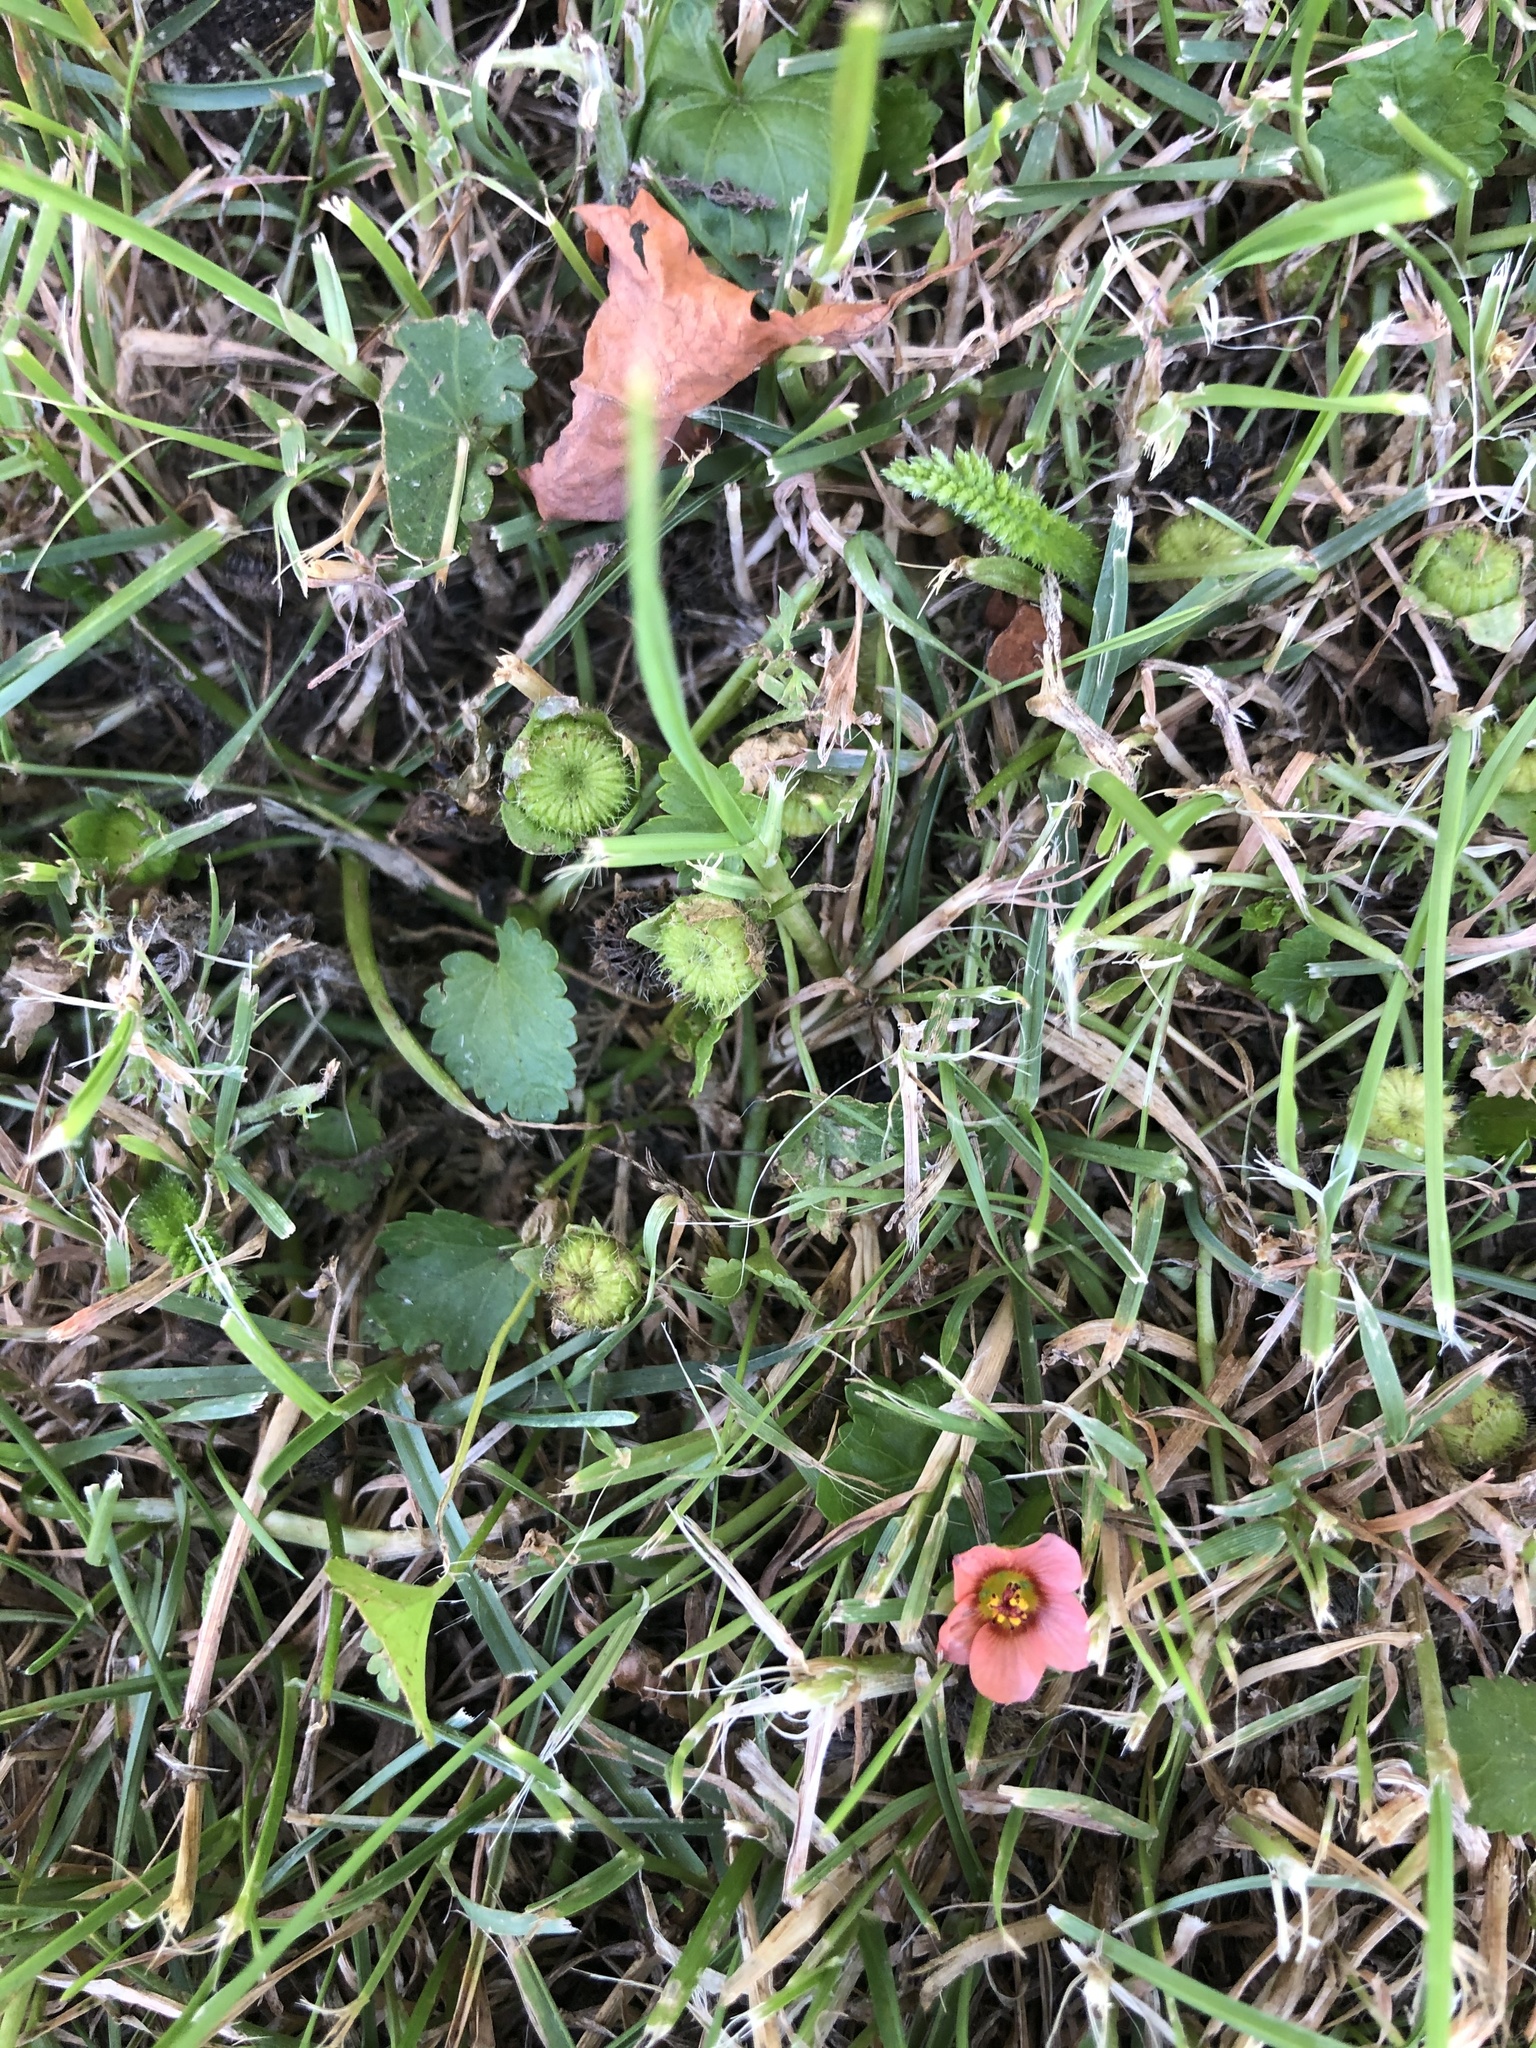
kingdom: Plantae
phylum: Tracheophyta
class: Magnoliopsida
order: Malvales
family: Malvaceae
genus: Modiola
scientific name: Modiola caroliniana
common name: Carolina bristlemallow
